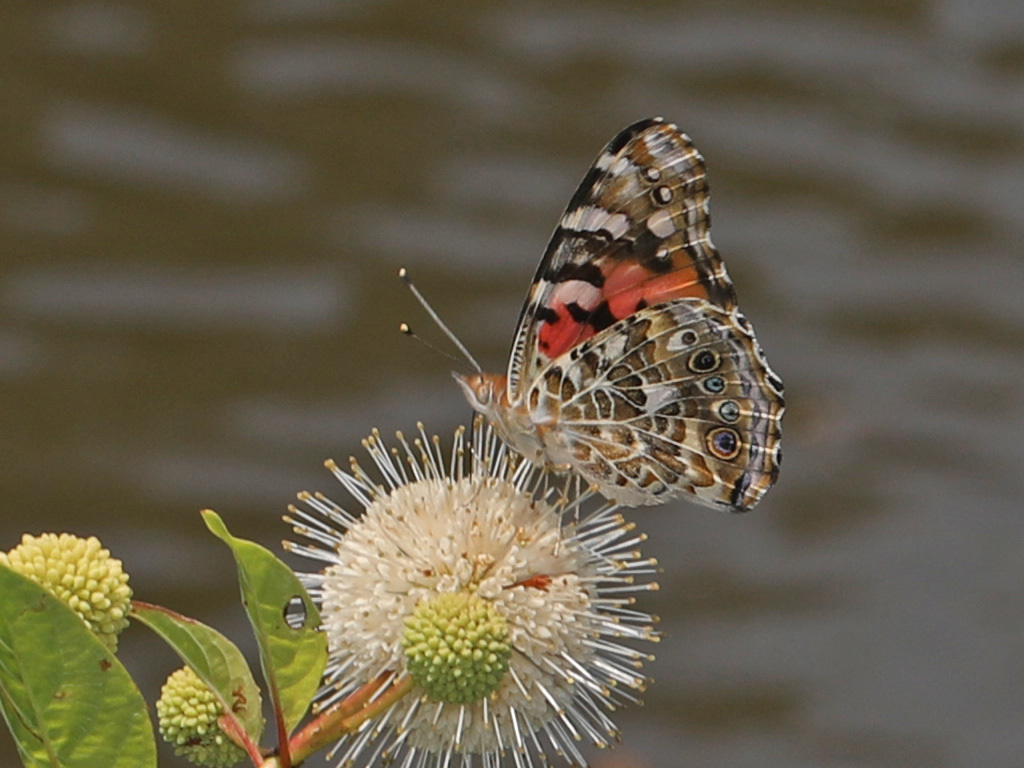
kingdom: Animalia
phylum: Arthropoda
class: Insecta
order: Lepidoptera
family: Nymphalidae
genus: Vanessa
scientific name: Vanessa cardui
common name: Painted lady
